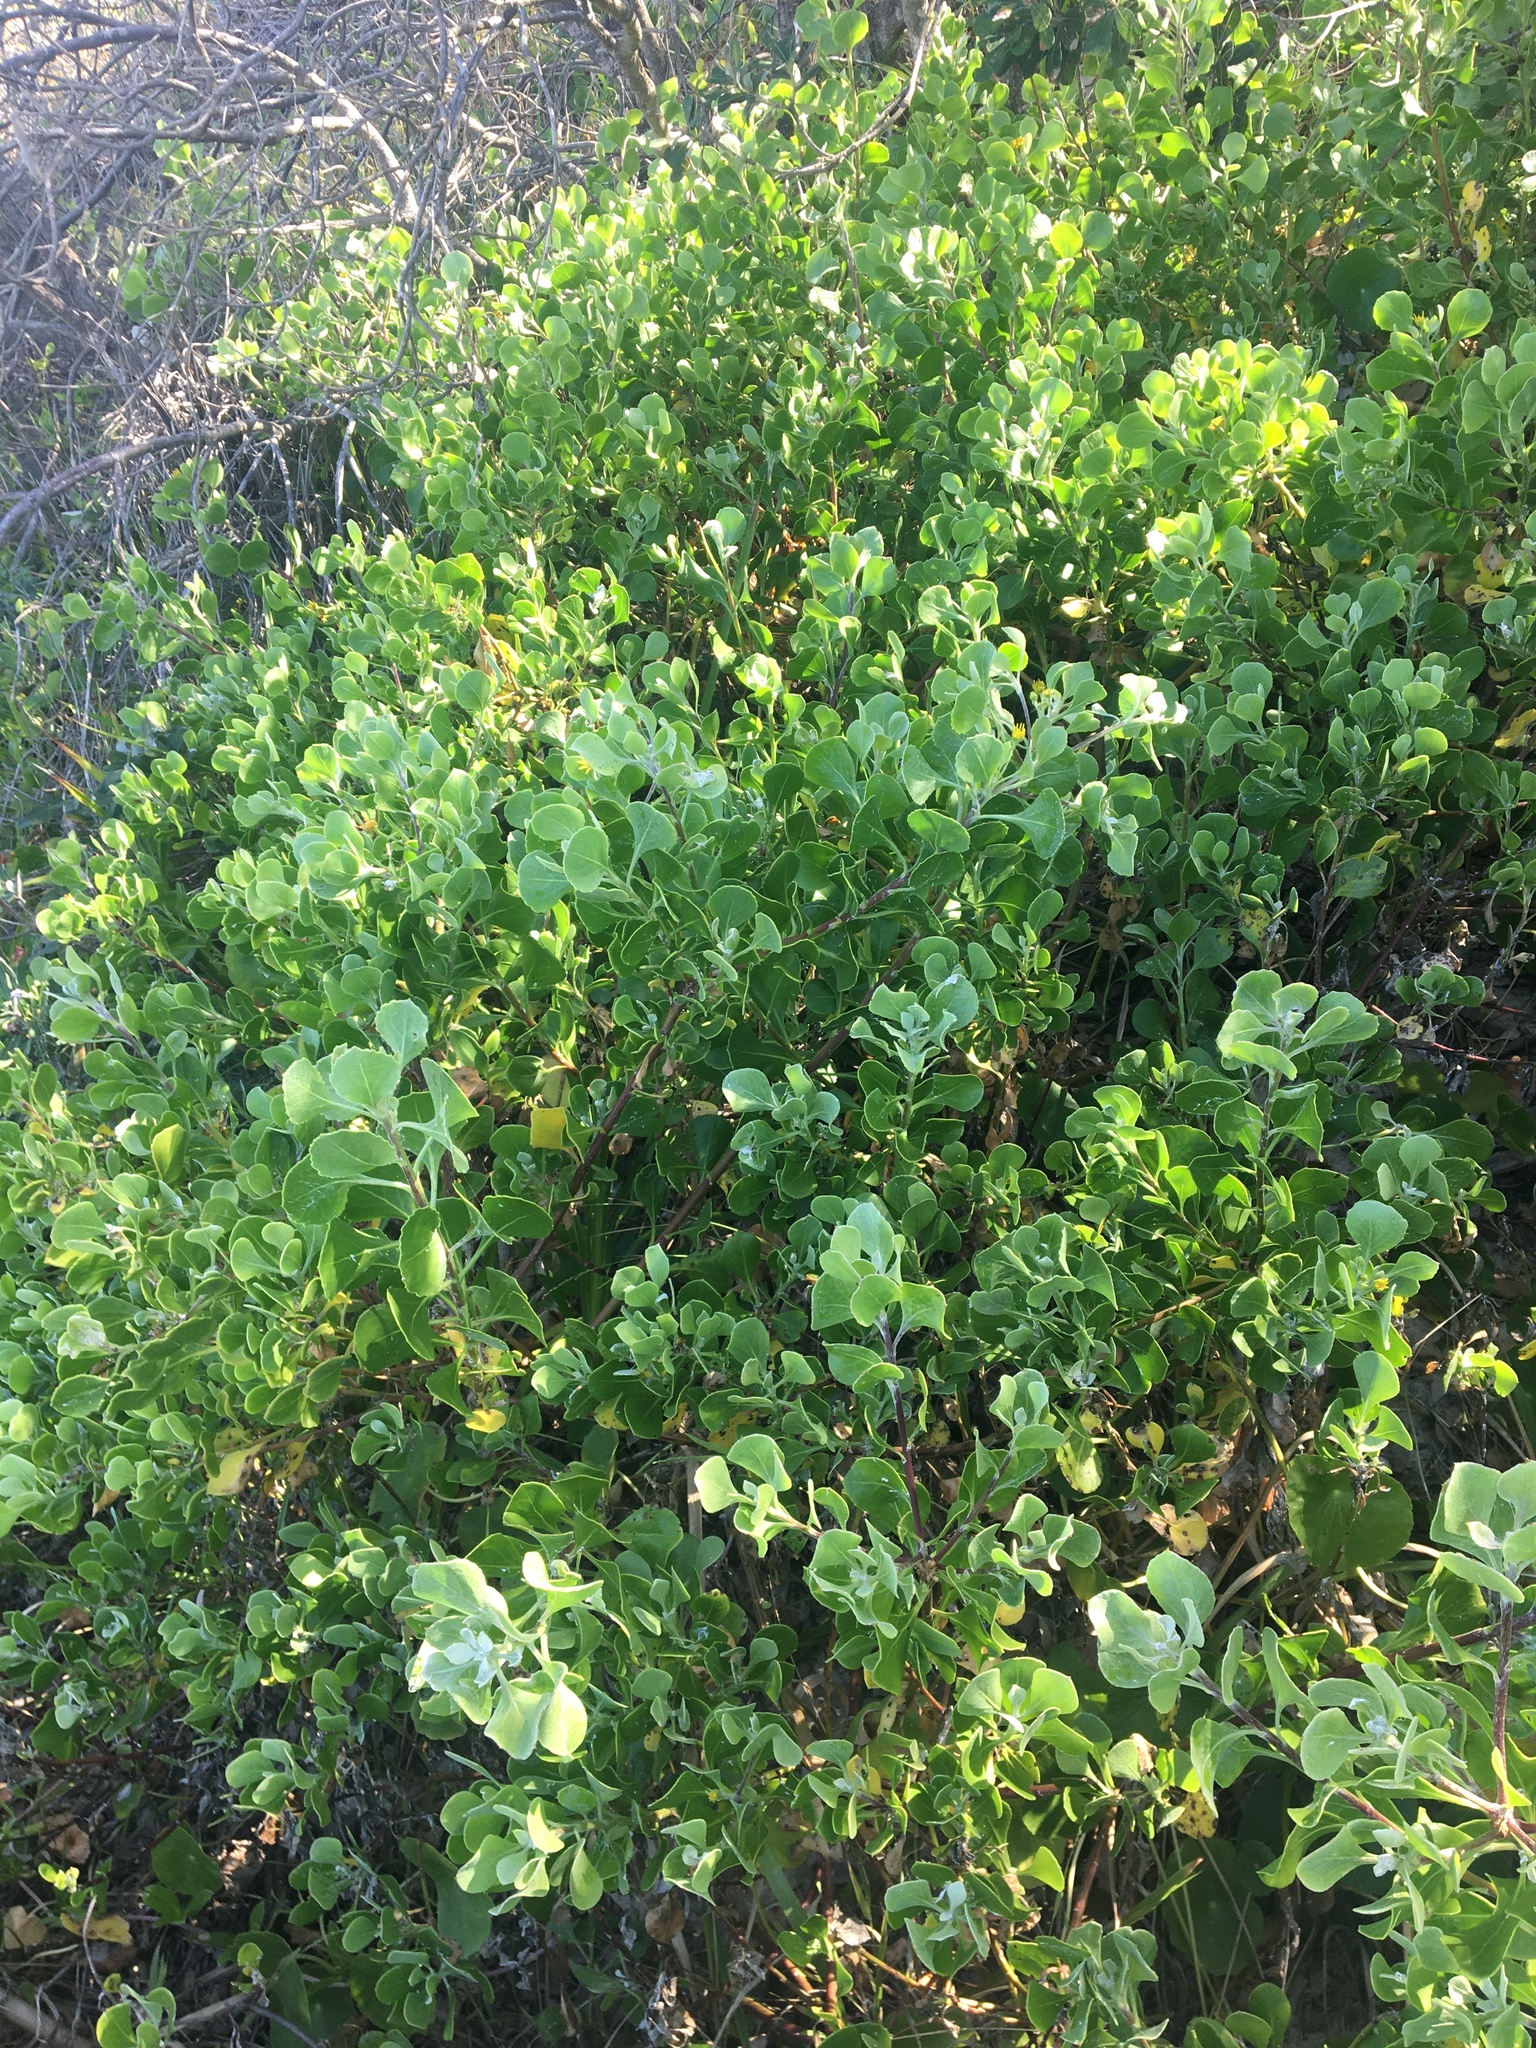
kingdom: Plantae
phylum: Tracheophyta
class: Magnoliopsida
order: Asterales
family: Asteraceae
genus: Osteospermum
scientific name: Osteospermum moniliferum
